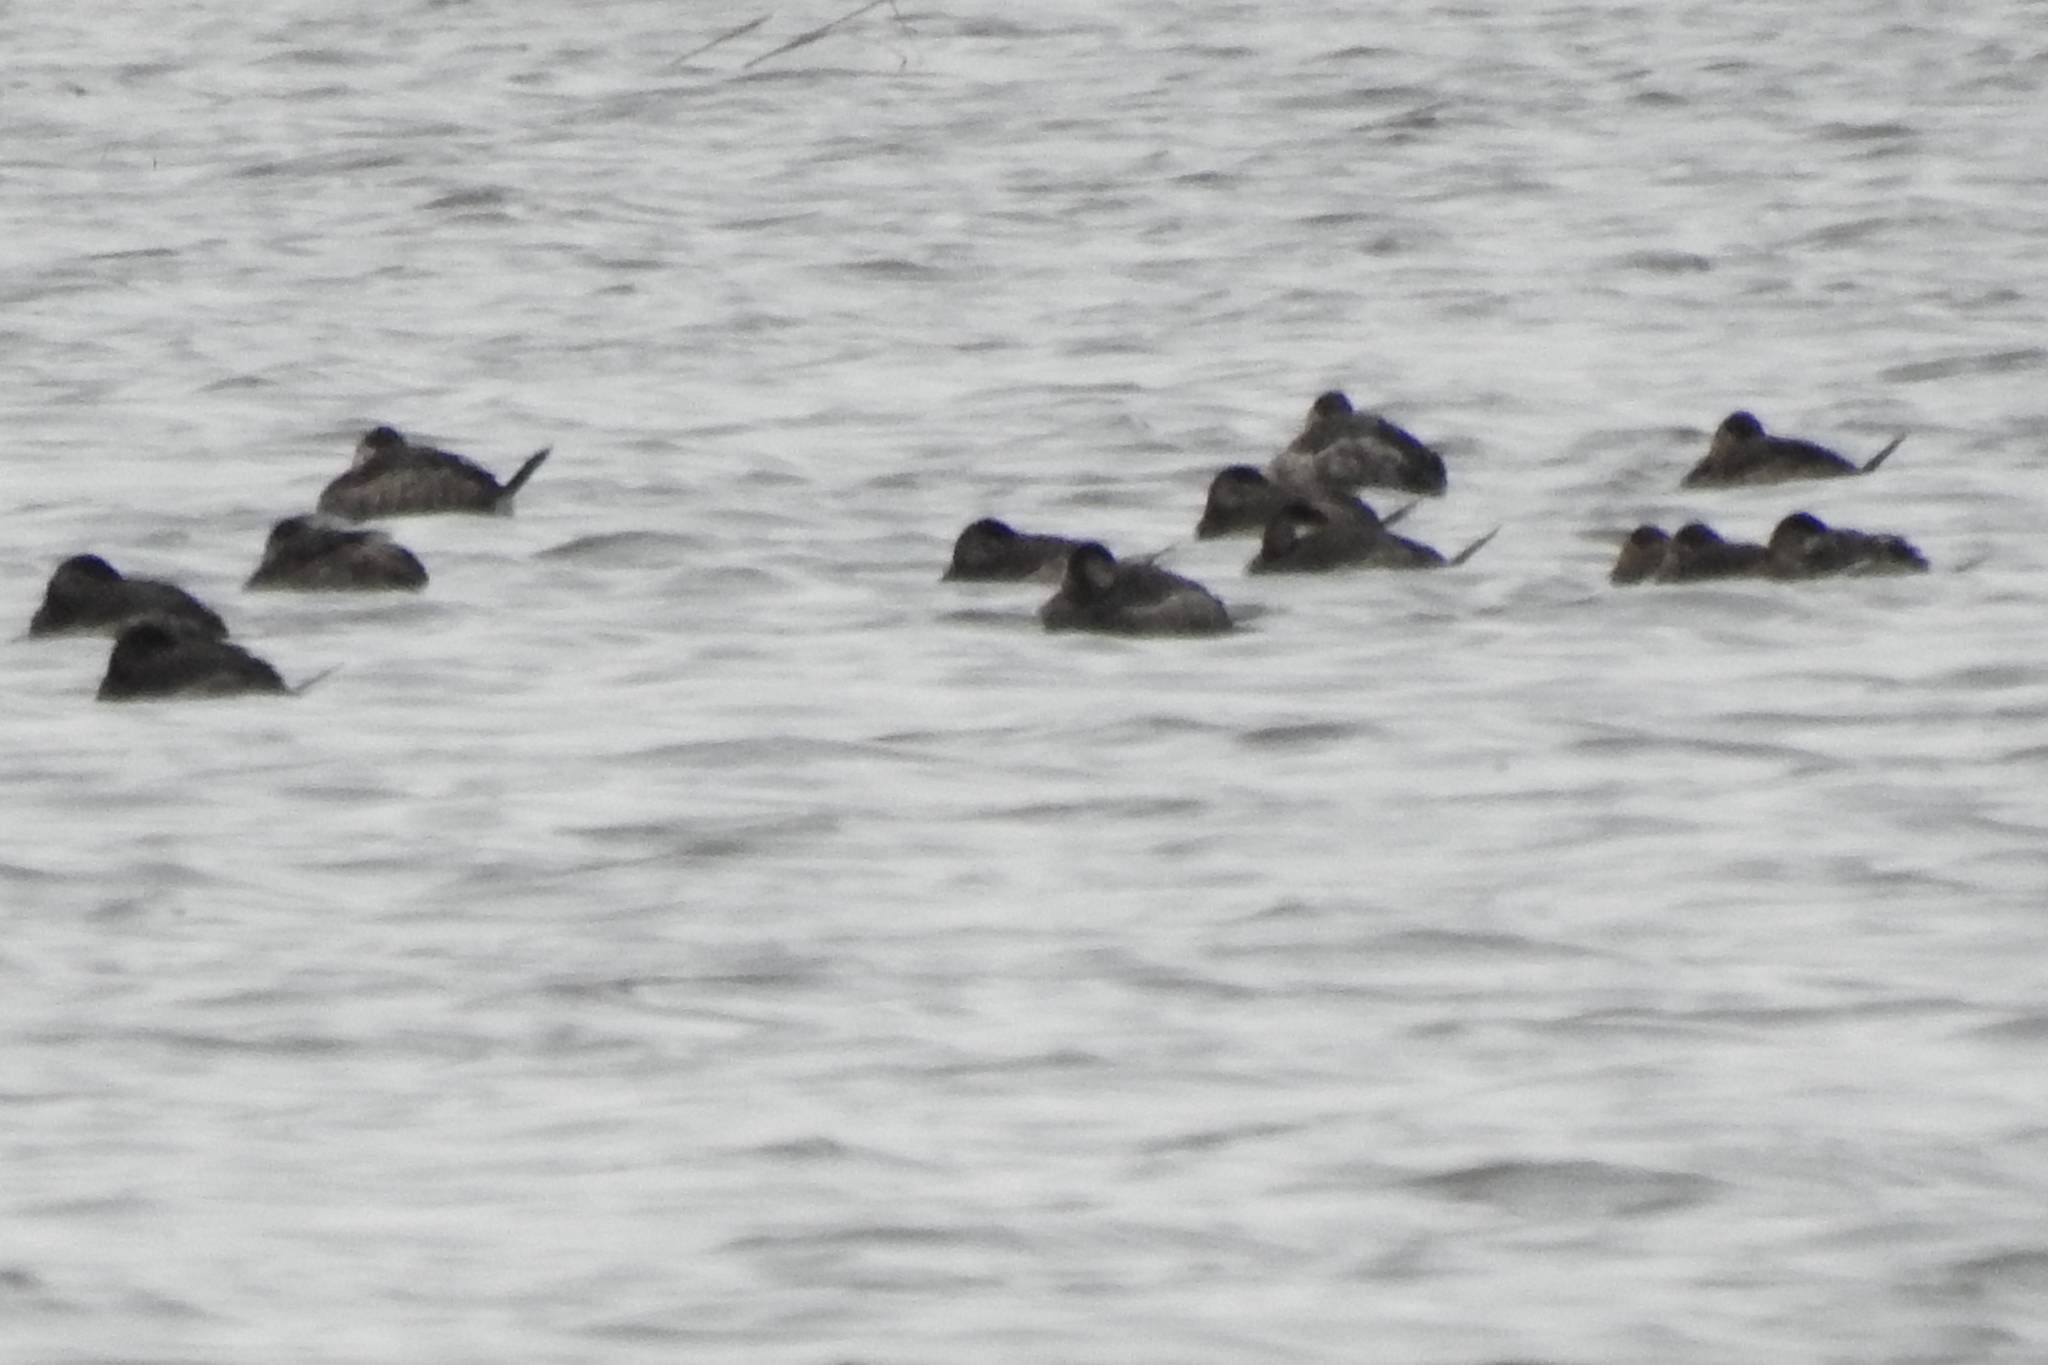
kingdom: Animalia
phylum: Chordata
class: Aves
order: Anseriformes
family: Anatidae
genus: Oxyura
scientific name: Oxyura jamaicensis
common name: Ruddy duck
